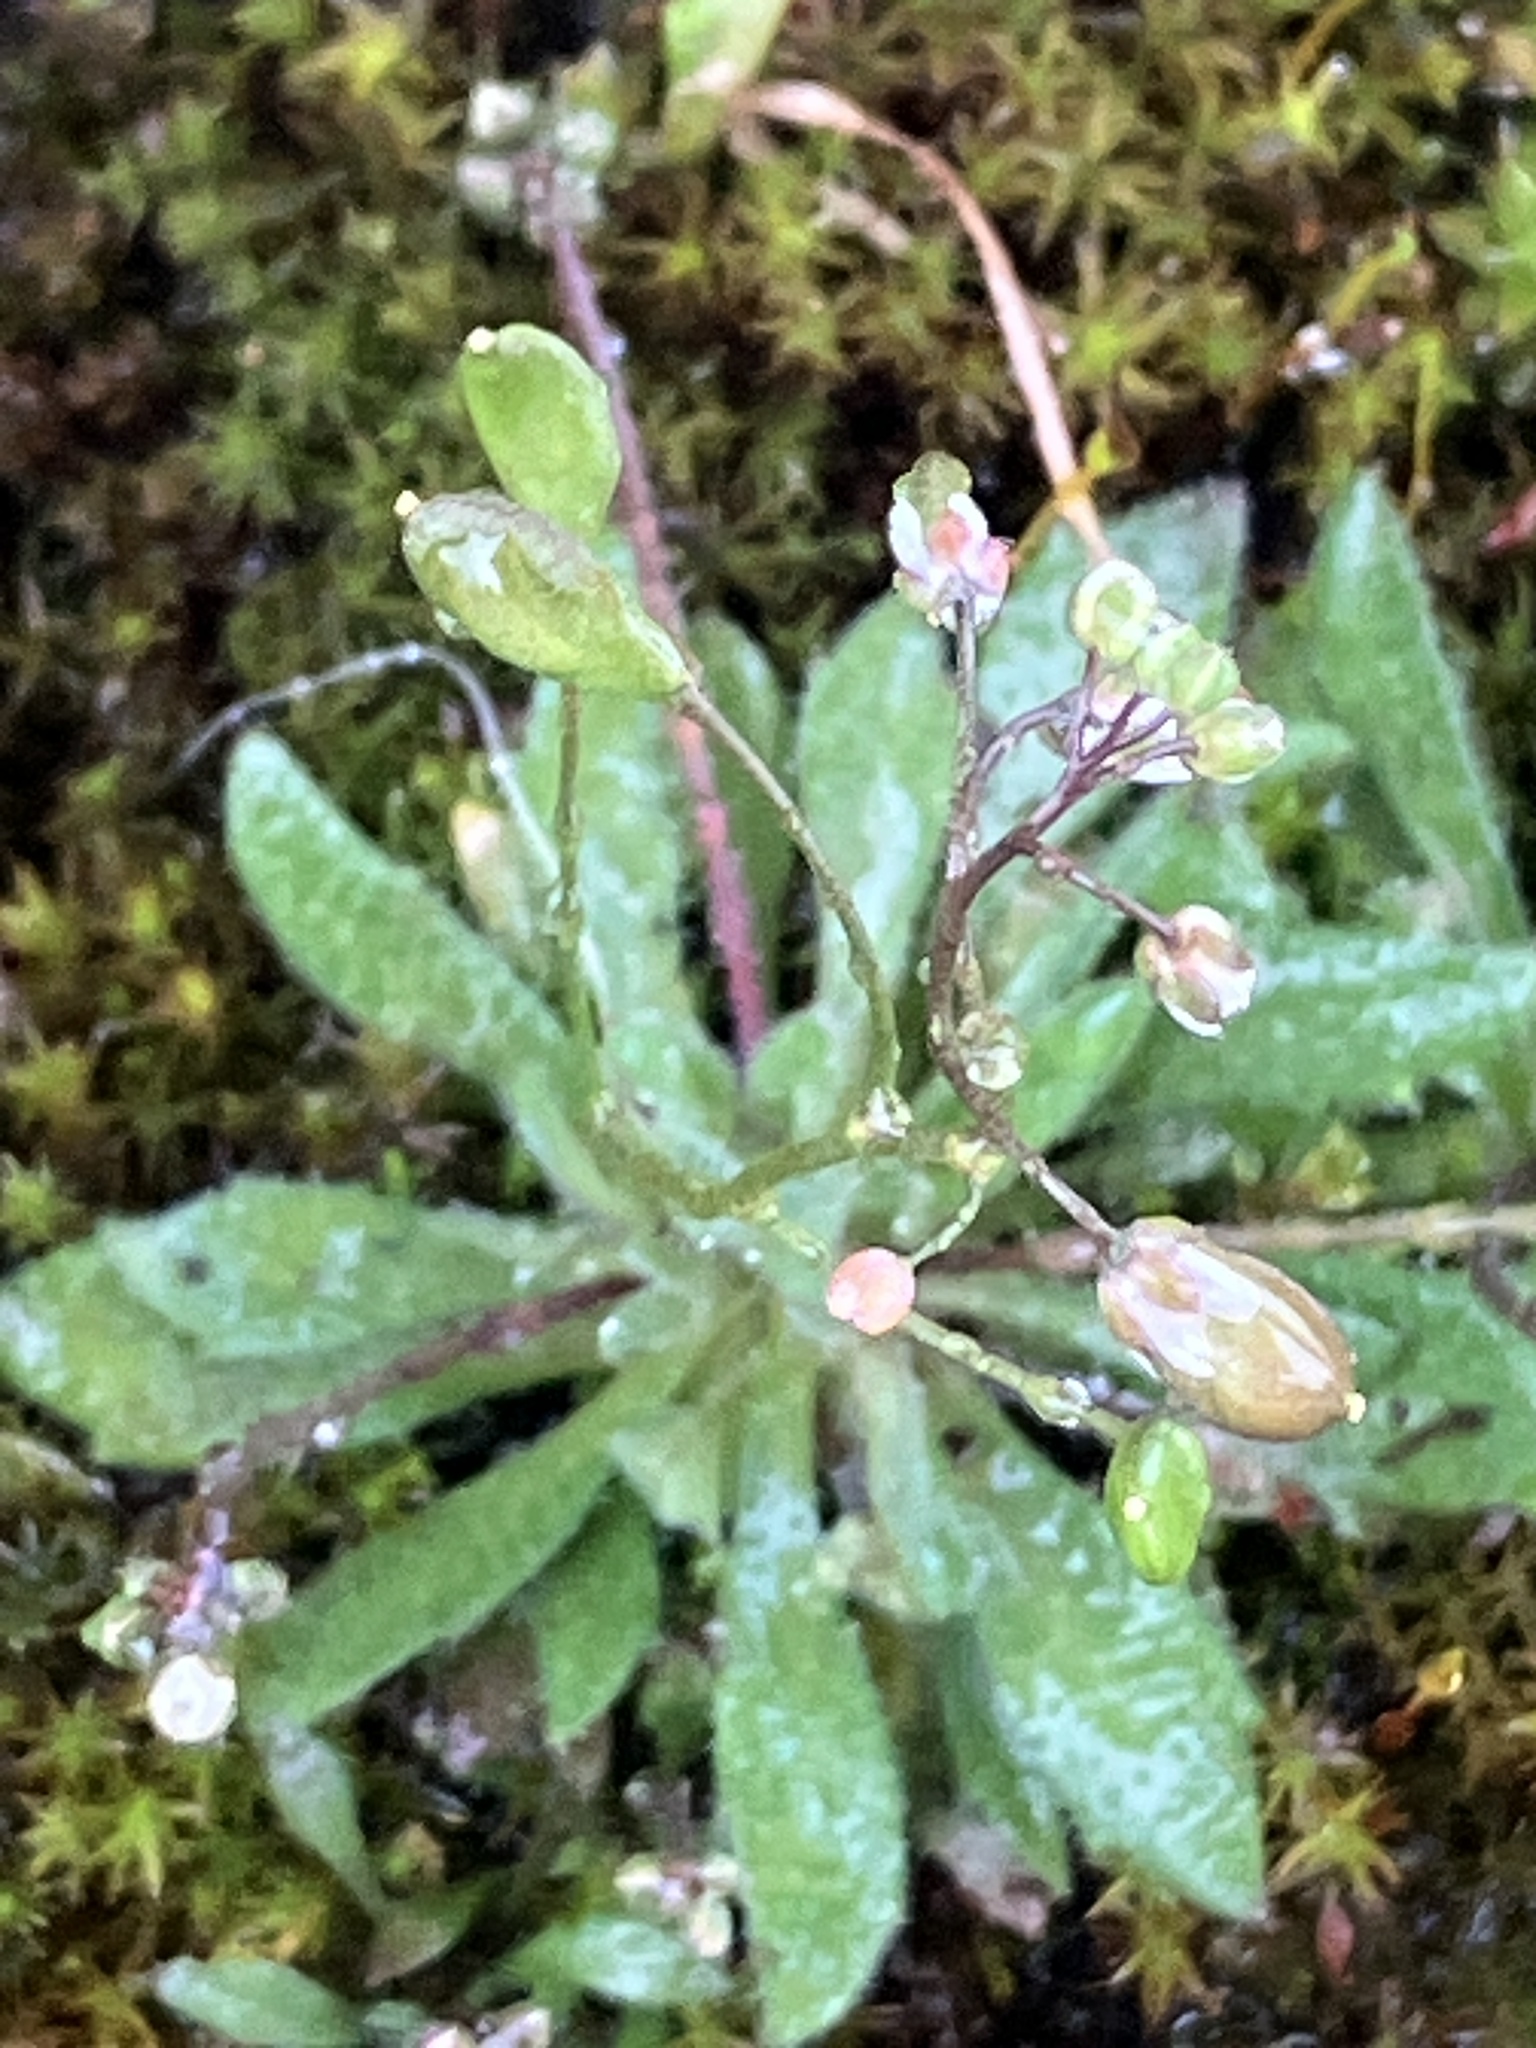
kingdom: Plantae
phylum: Tracheophyta
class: Magnoliopsida
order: Brassicales
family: Brassicaceae
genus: Draba
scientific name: Draba verna
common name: Spring draba
